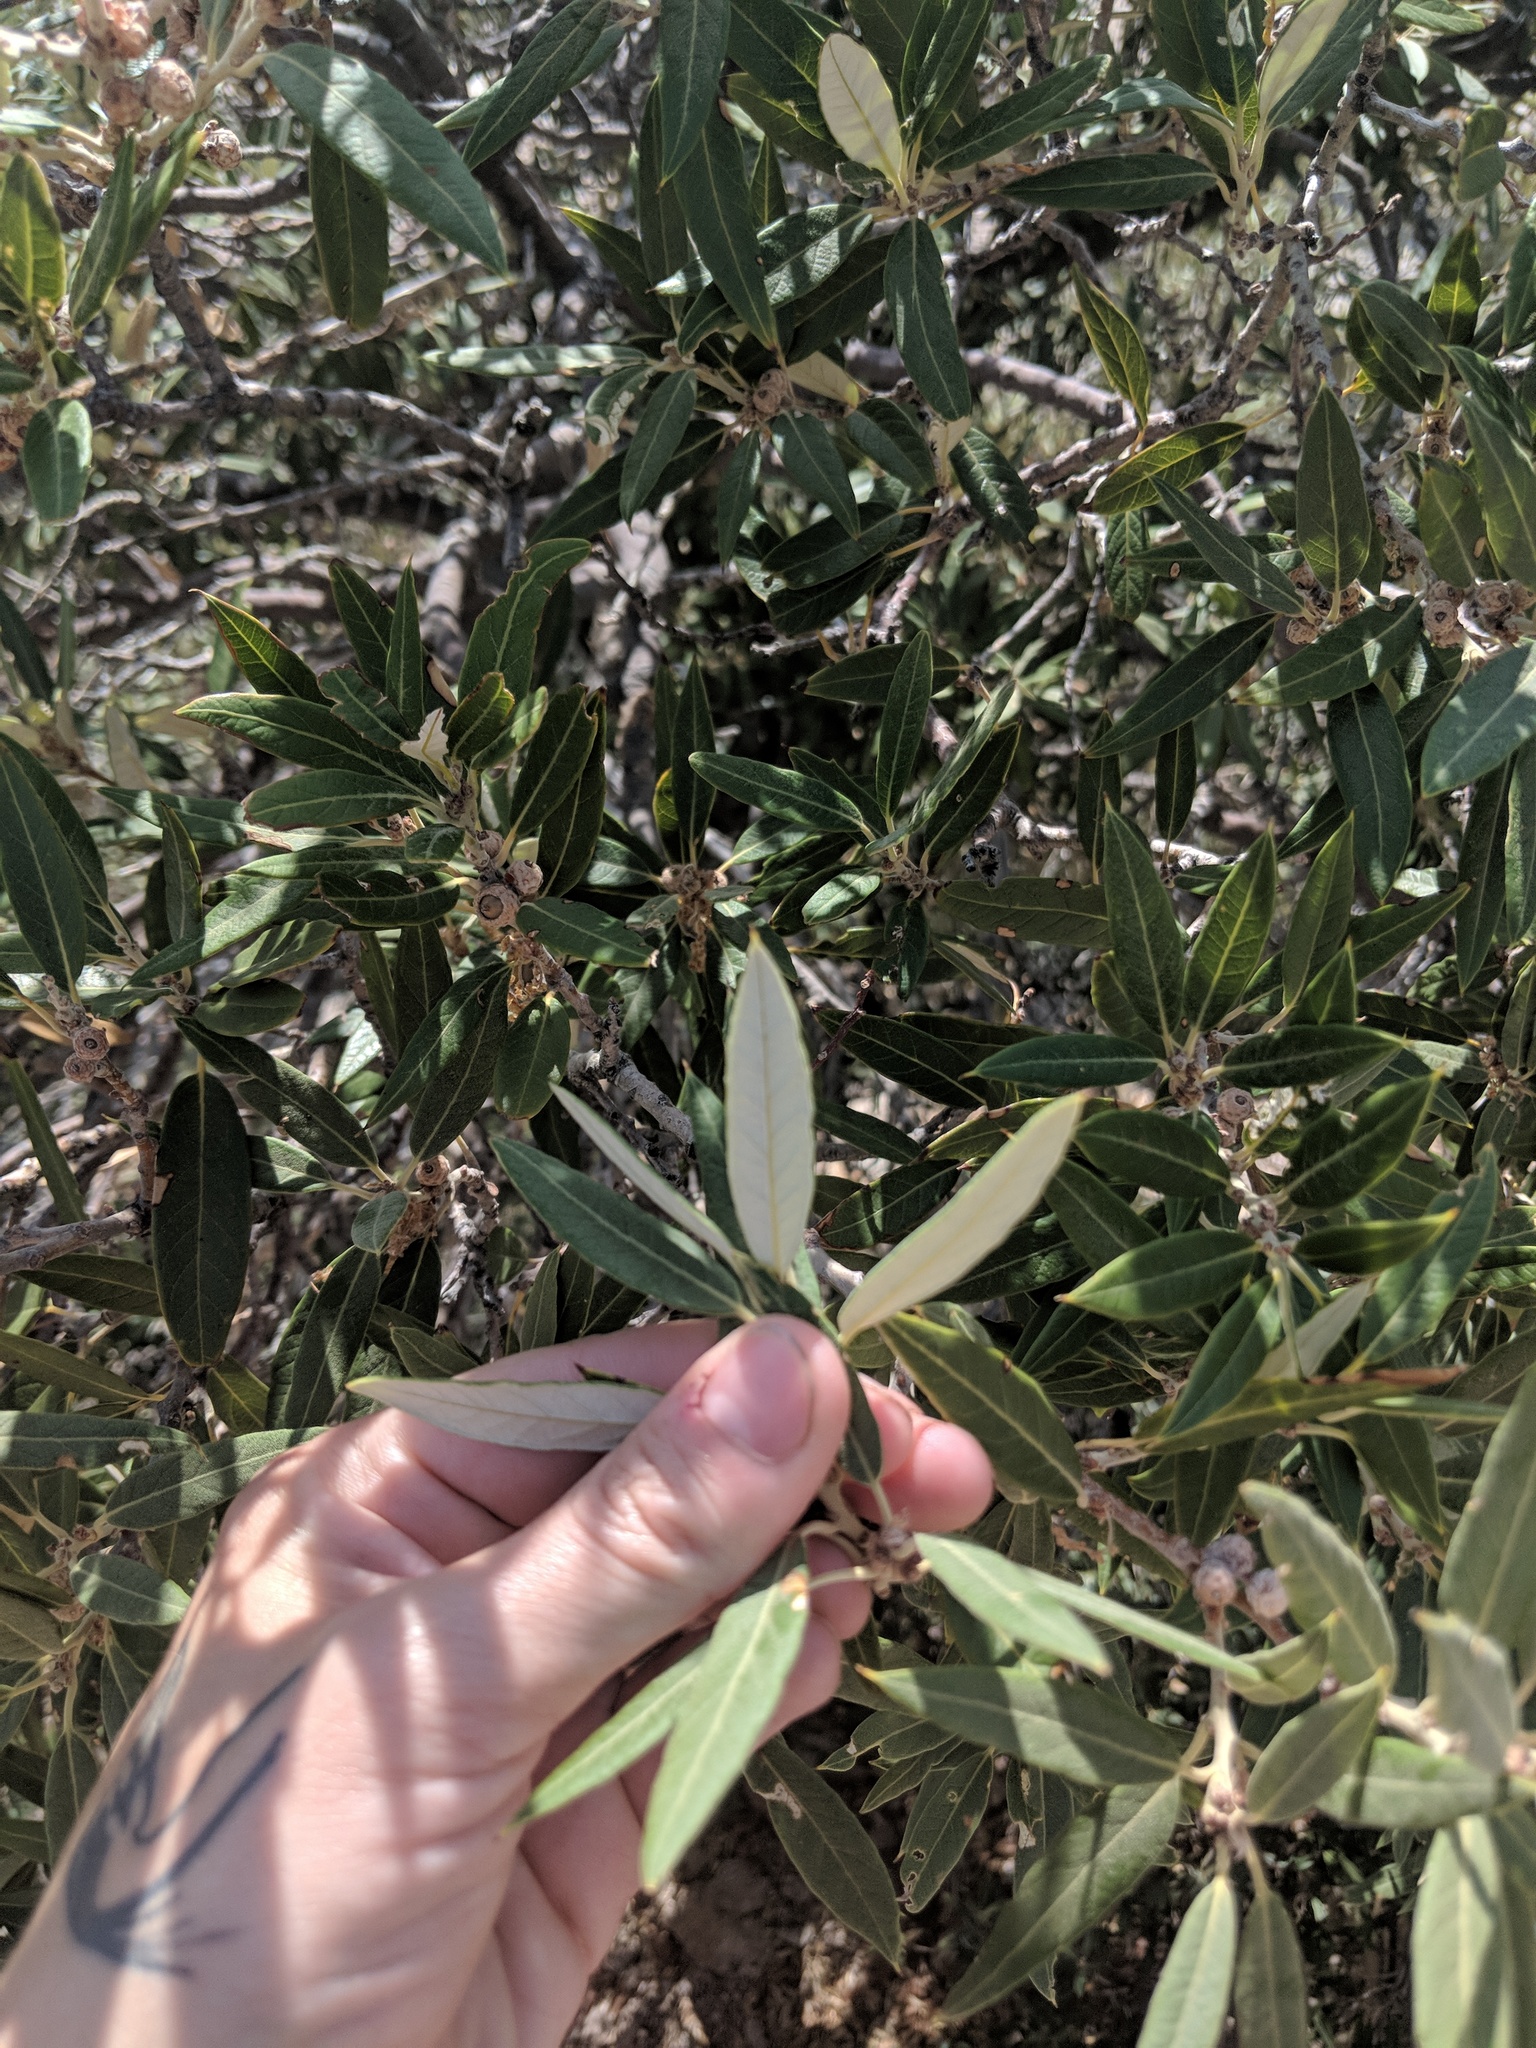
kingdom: Plantae
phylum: Tracheophyta
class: Magnoliopsida
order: Fagales
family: Fagaceae
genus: Quercus
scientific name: Quercus hypoleucoides
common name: Silverleaf oak
